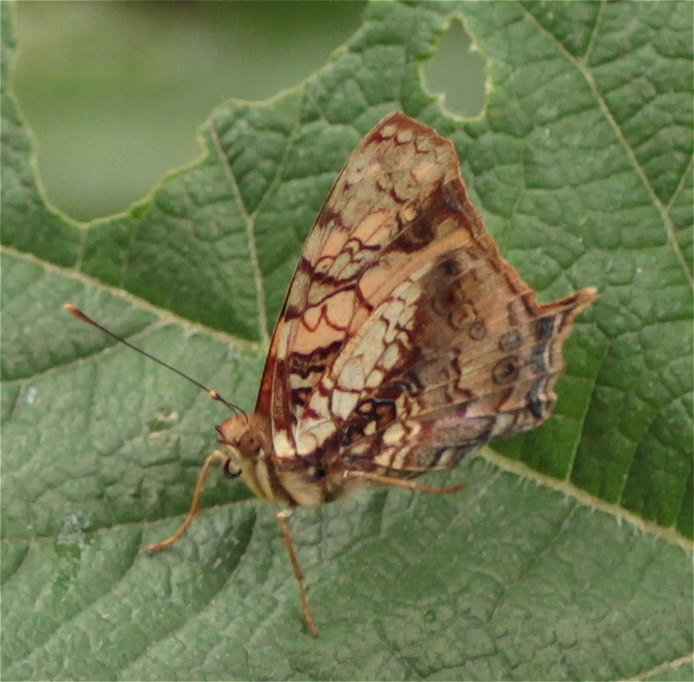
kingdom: Animalia
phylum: Arthropoda
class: Insecta
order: Lepidoptera
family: Nymphalidae
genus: Hypanartia
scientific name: Hypanartia lethe
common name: Orange mapwing
